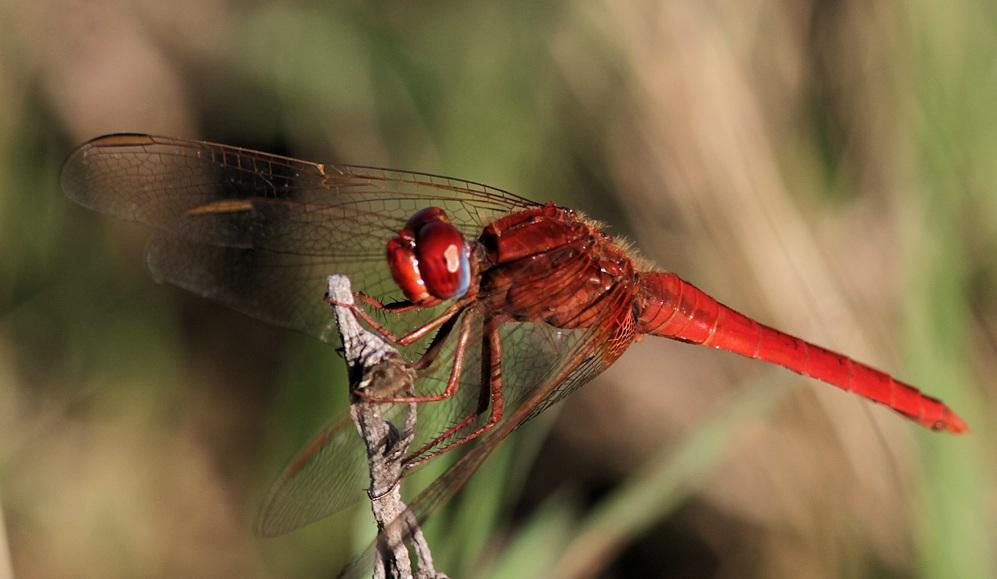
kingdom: Animalia
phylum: Arthropoda
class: Insecta
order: Odonata
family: Libellulidae
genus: Crocothemis
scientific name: Crocothemis erythraea
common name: Scarlet dragonfly
